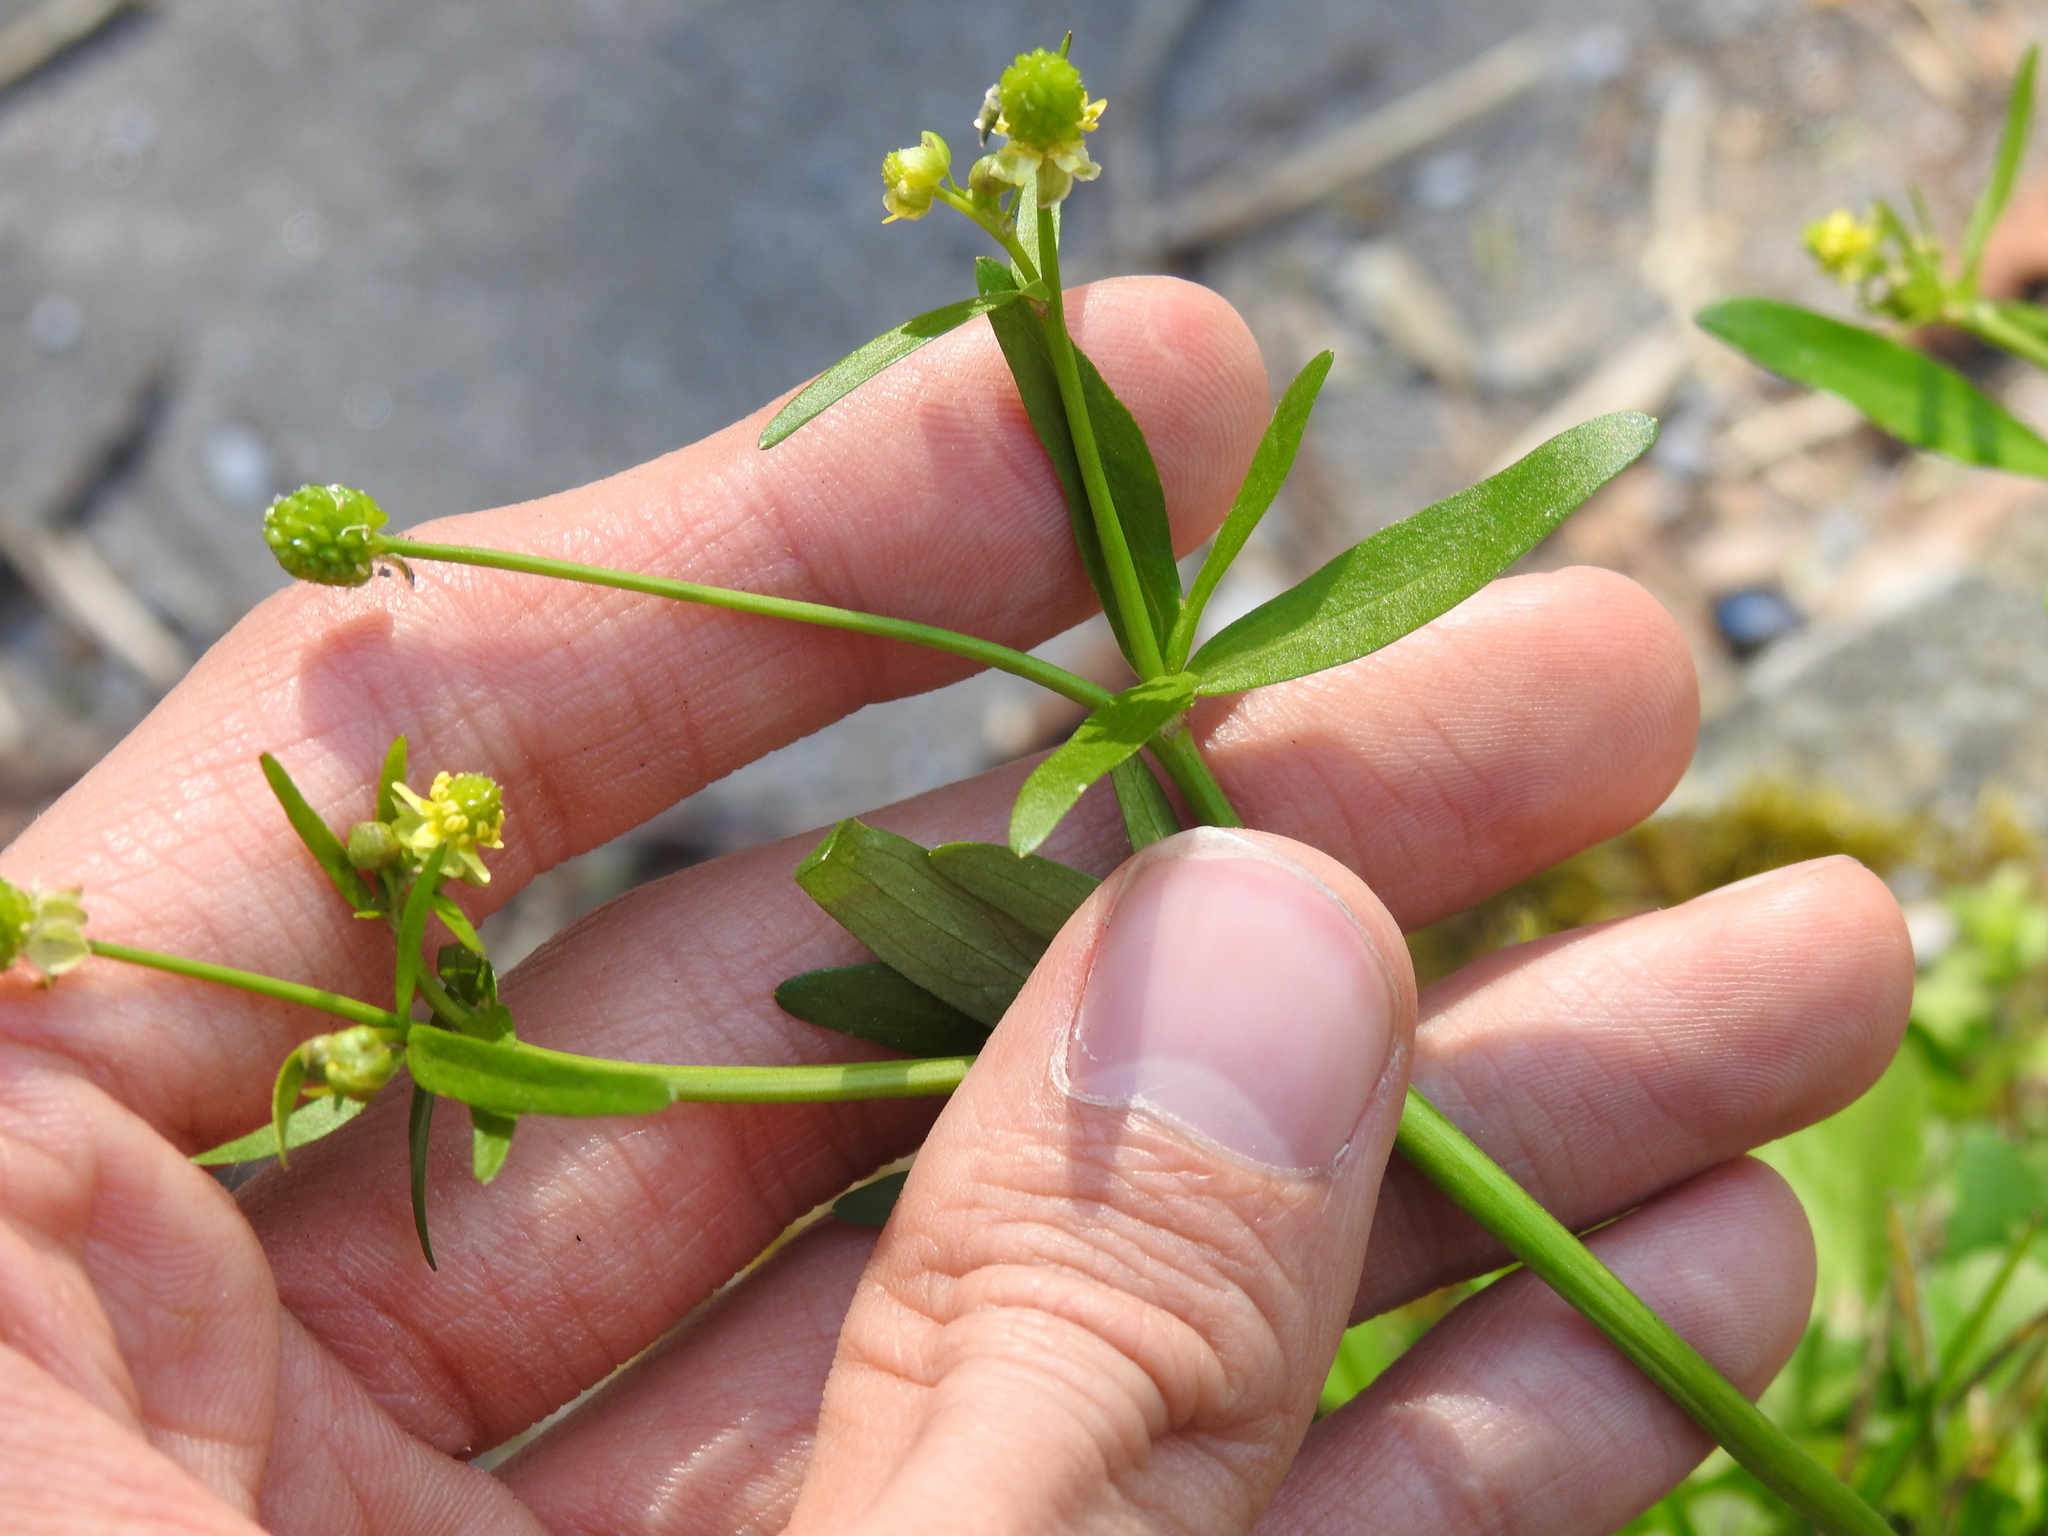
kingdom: Plantae
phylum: Tracheophyta
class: Magnoliopsida
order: Ranunculales
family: Ranunculaceae
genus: Ranunculus
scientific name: Ranunculus abortivus
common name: Early wood buttercup
